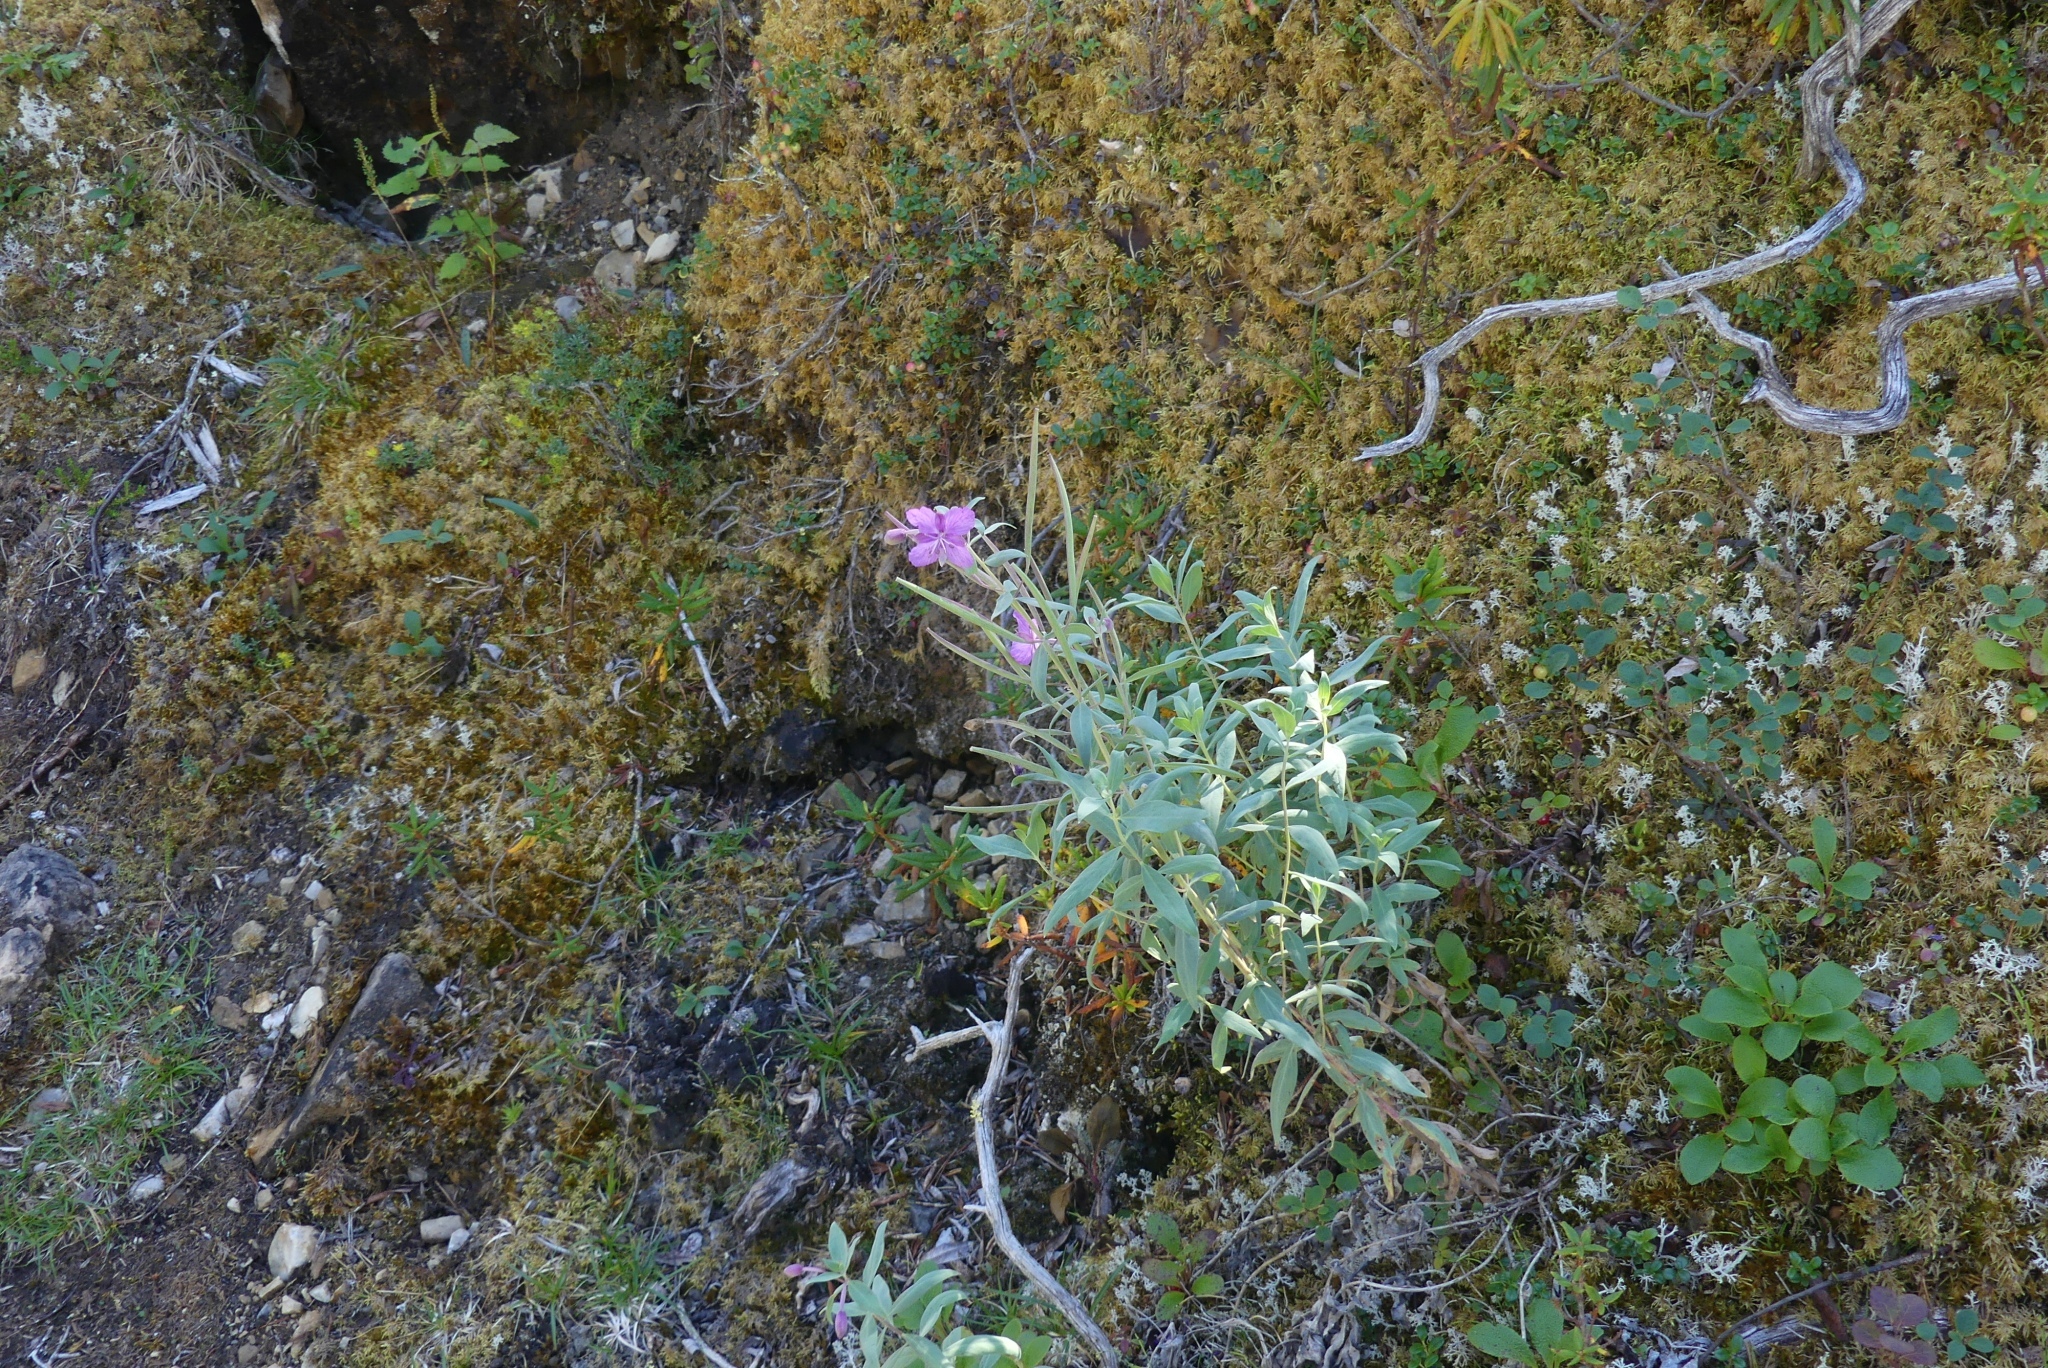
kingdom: Plantae
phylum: Tracheophyta
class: Magnoliopsida
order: Myrtales
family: Onagraceae
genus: Chamaenerion
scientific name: Chamaenerion latifolium
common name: Dwarf fireweed
